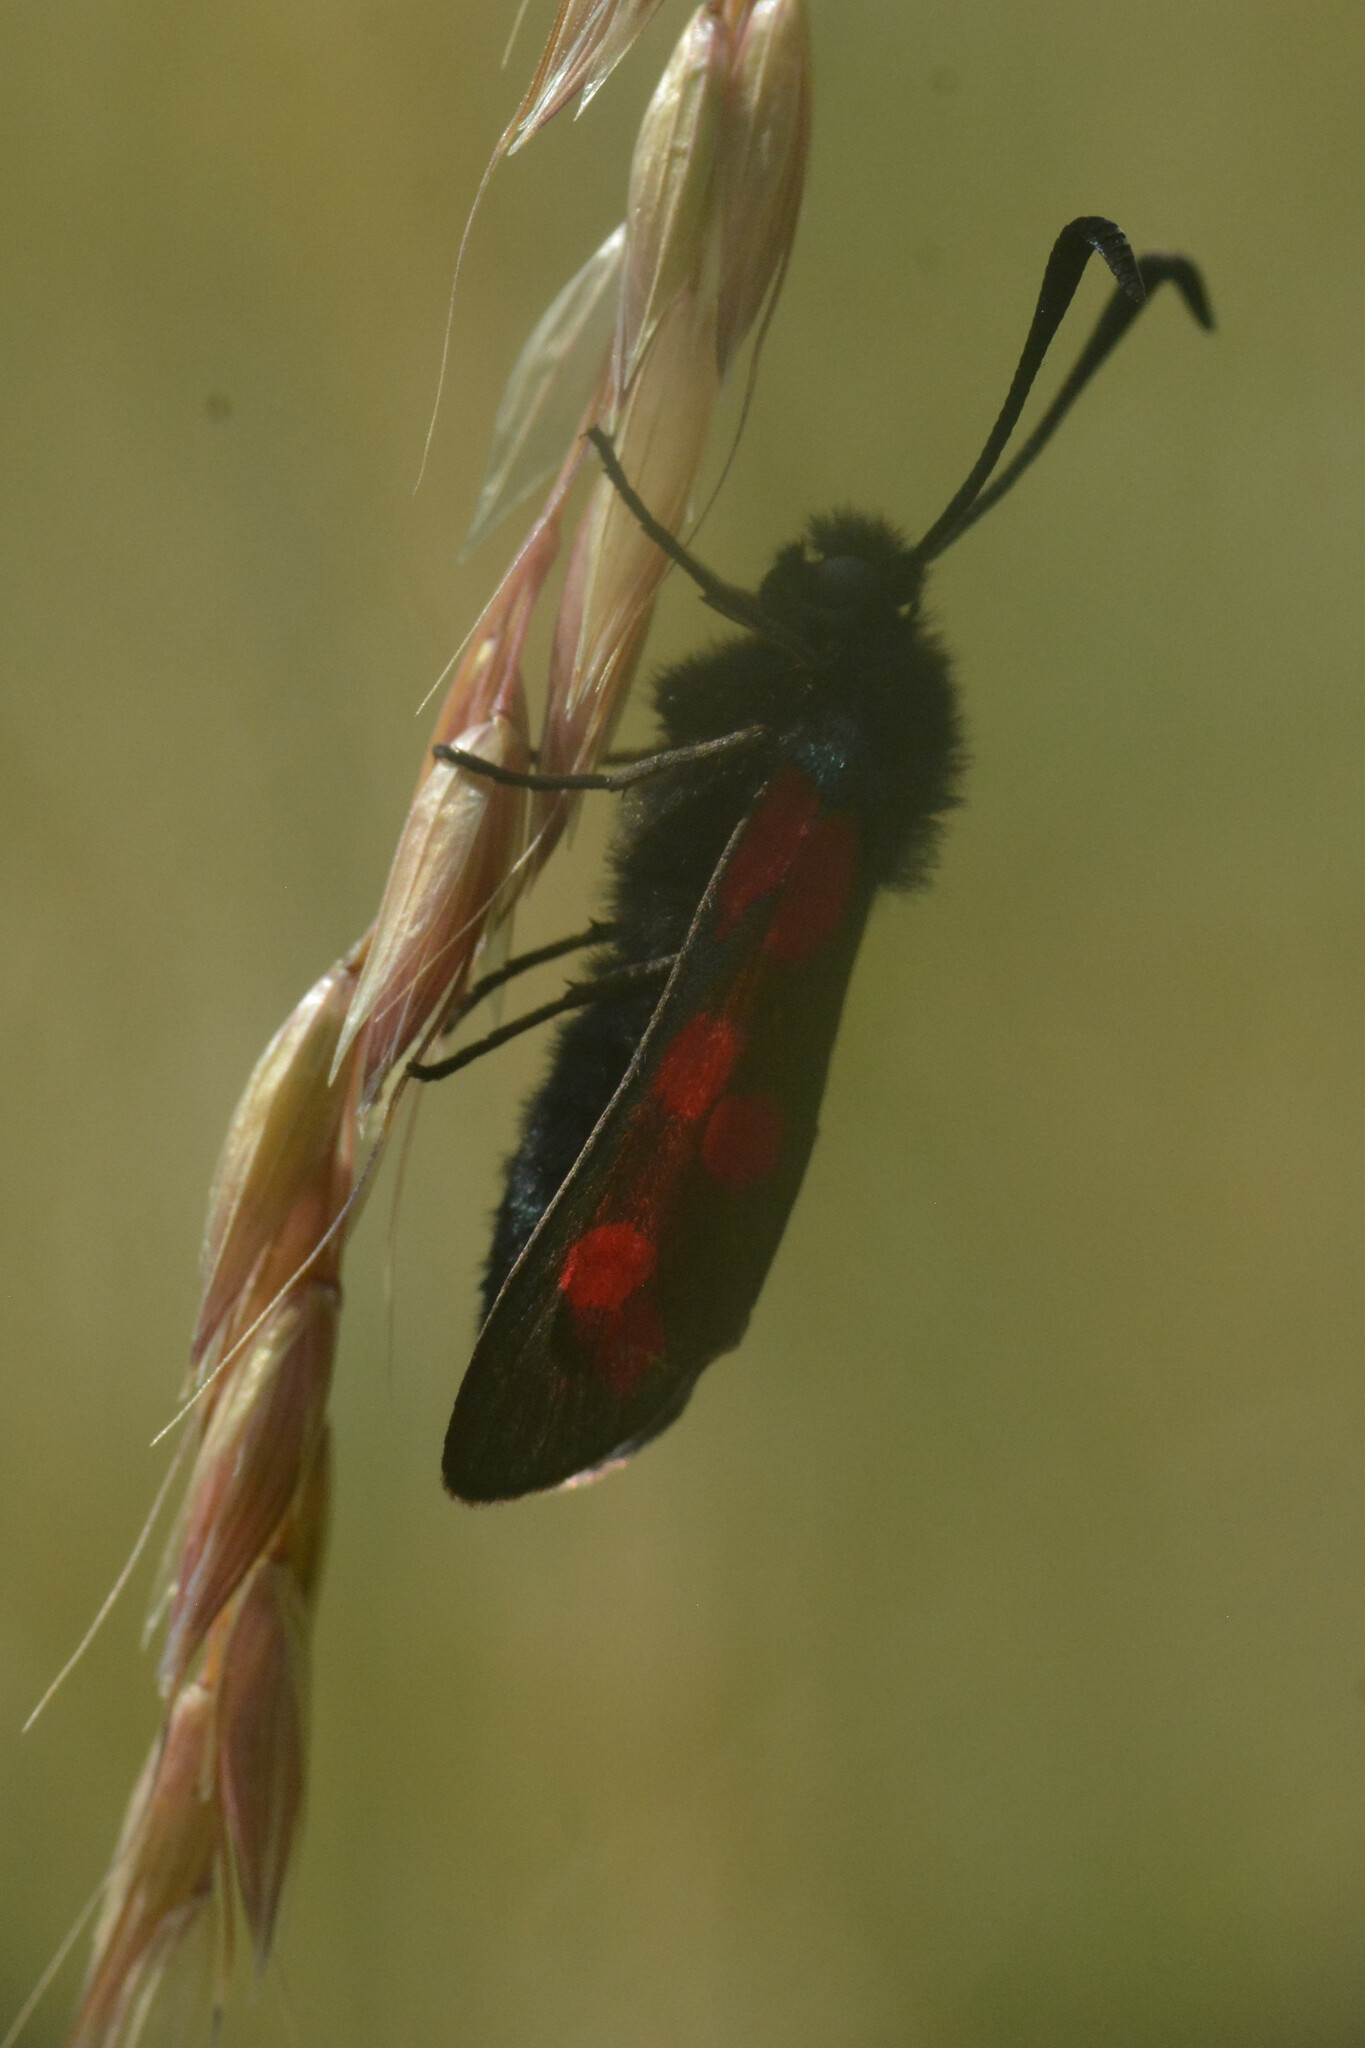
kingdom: Animalia
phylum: Arthropoda
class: Insecta
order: Lepidoptera
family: Zygaenidae
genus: Zygaena
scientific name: Zygaena filipendulae
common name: Six-spot burnet
